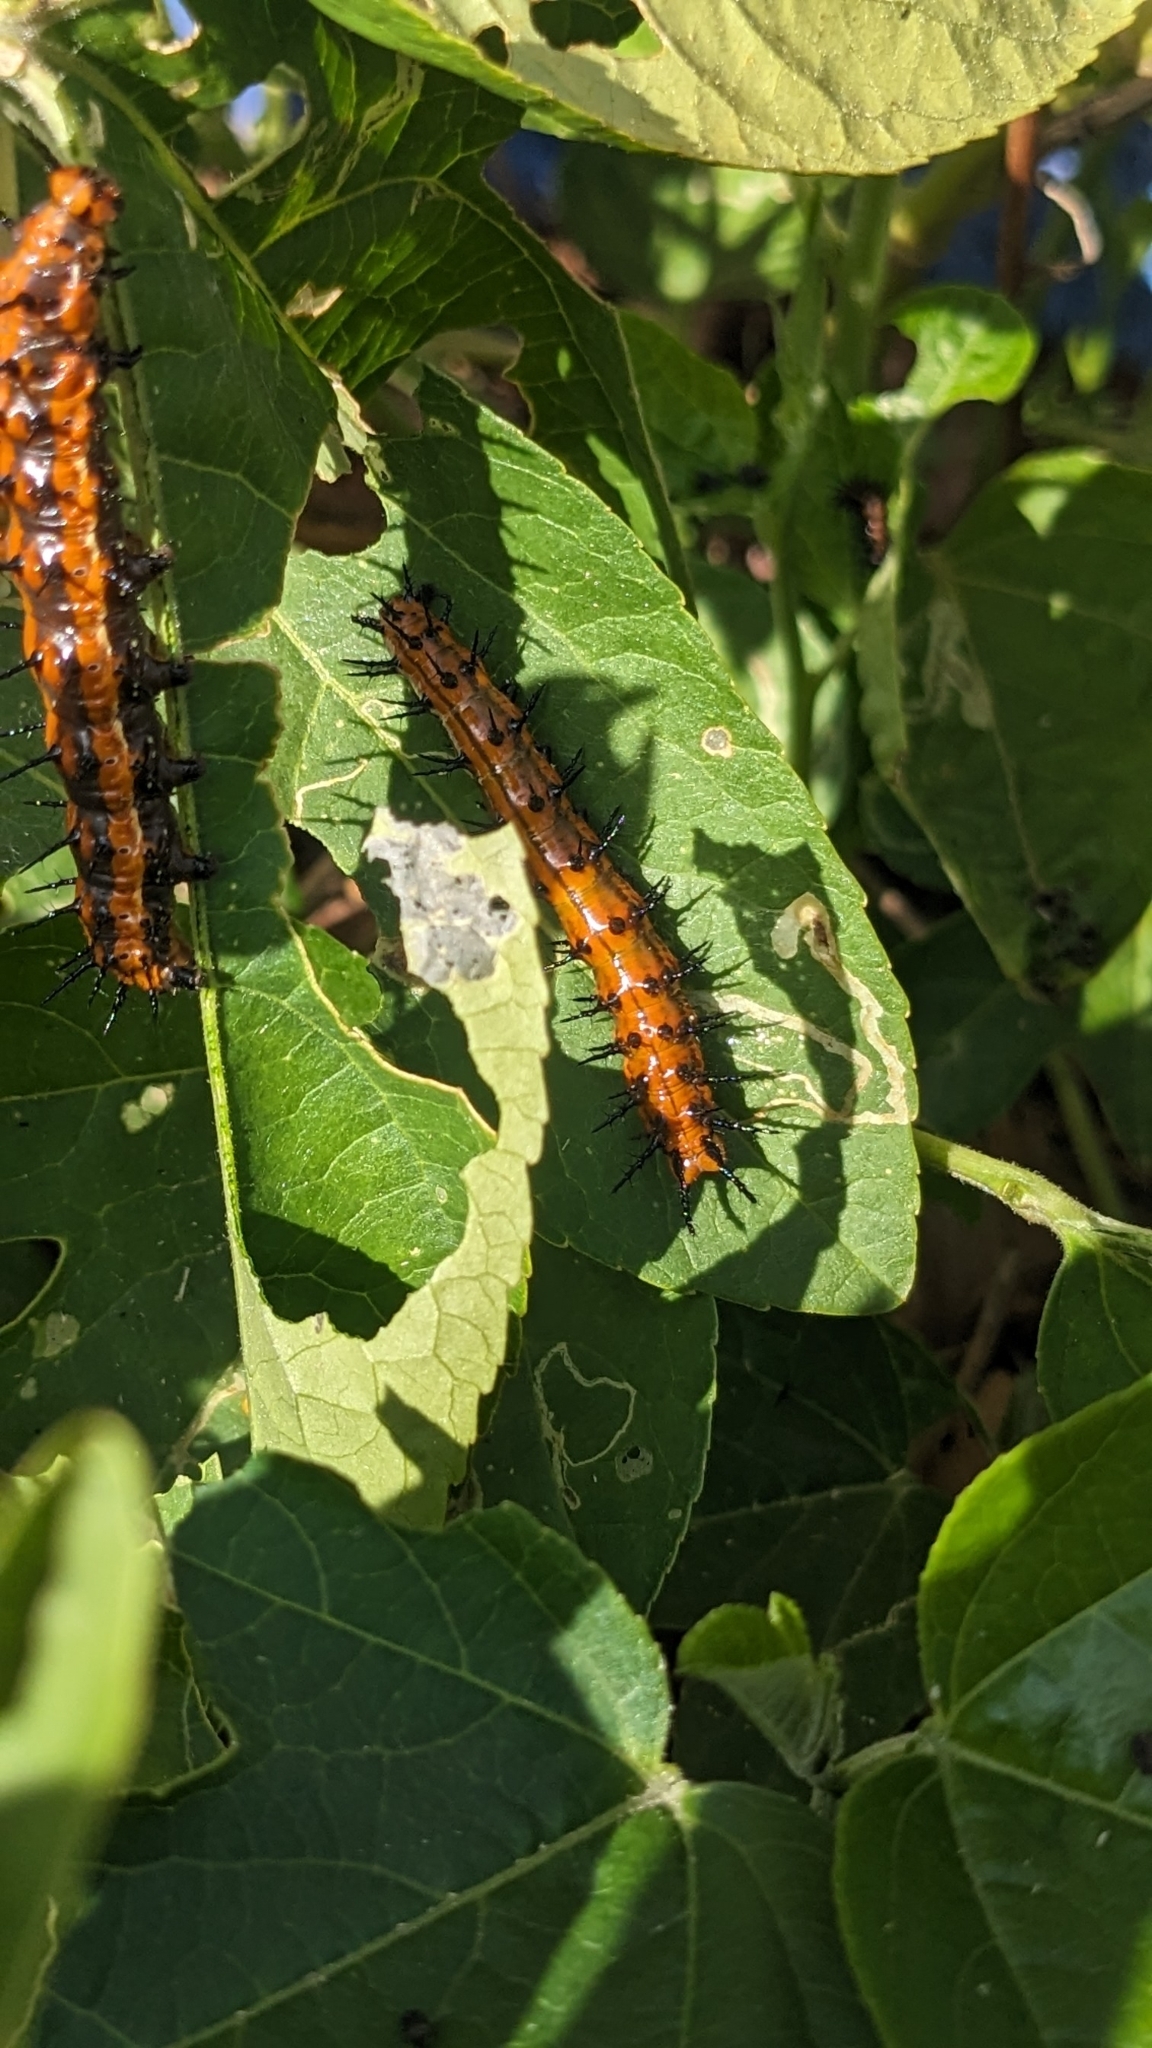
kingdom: Animalia
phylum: Arthropoda
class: Insecta
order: Lepidoptera
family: Nymphalidae
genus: Dione
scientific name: Dione vanillae
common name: Gulf fritillary
